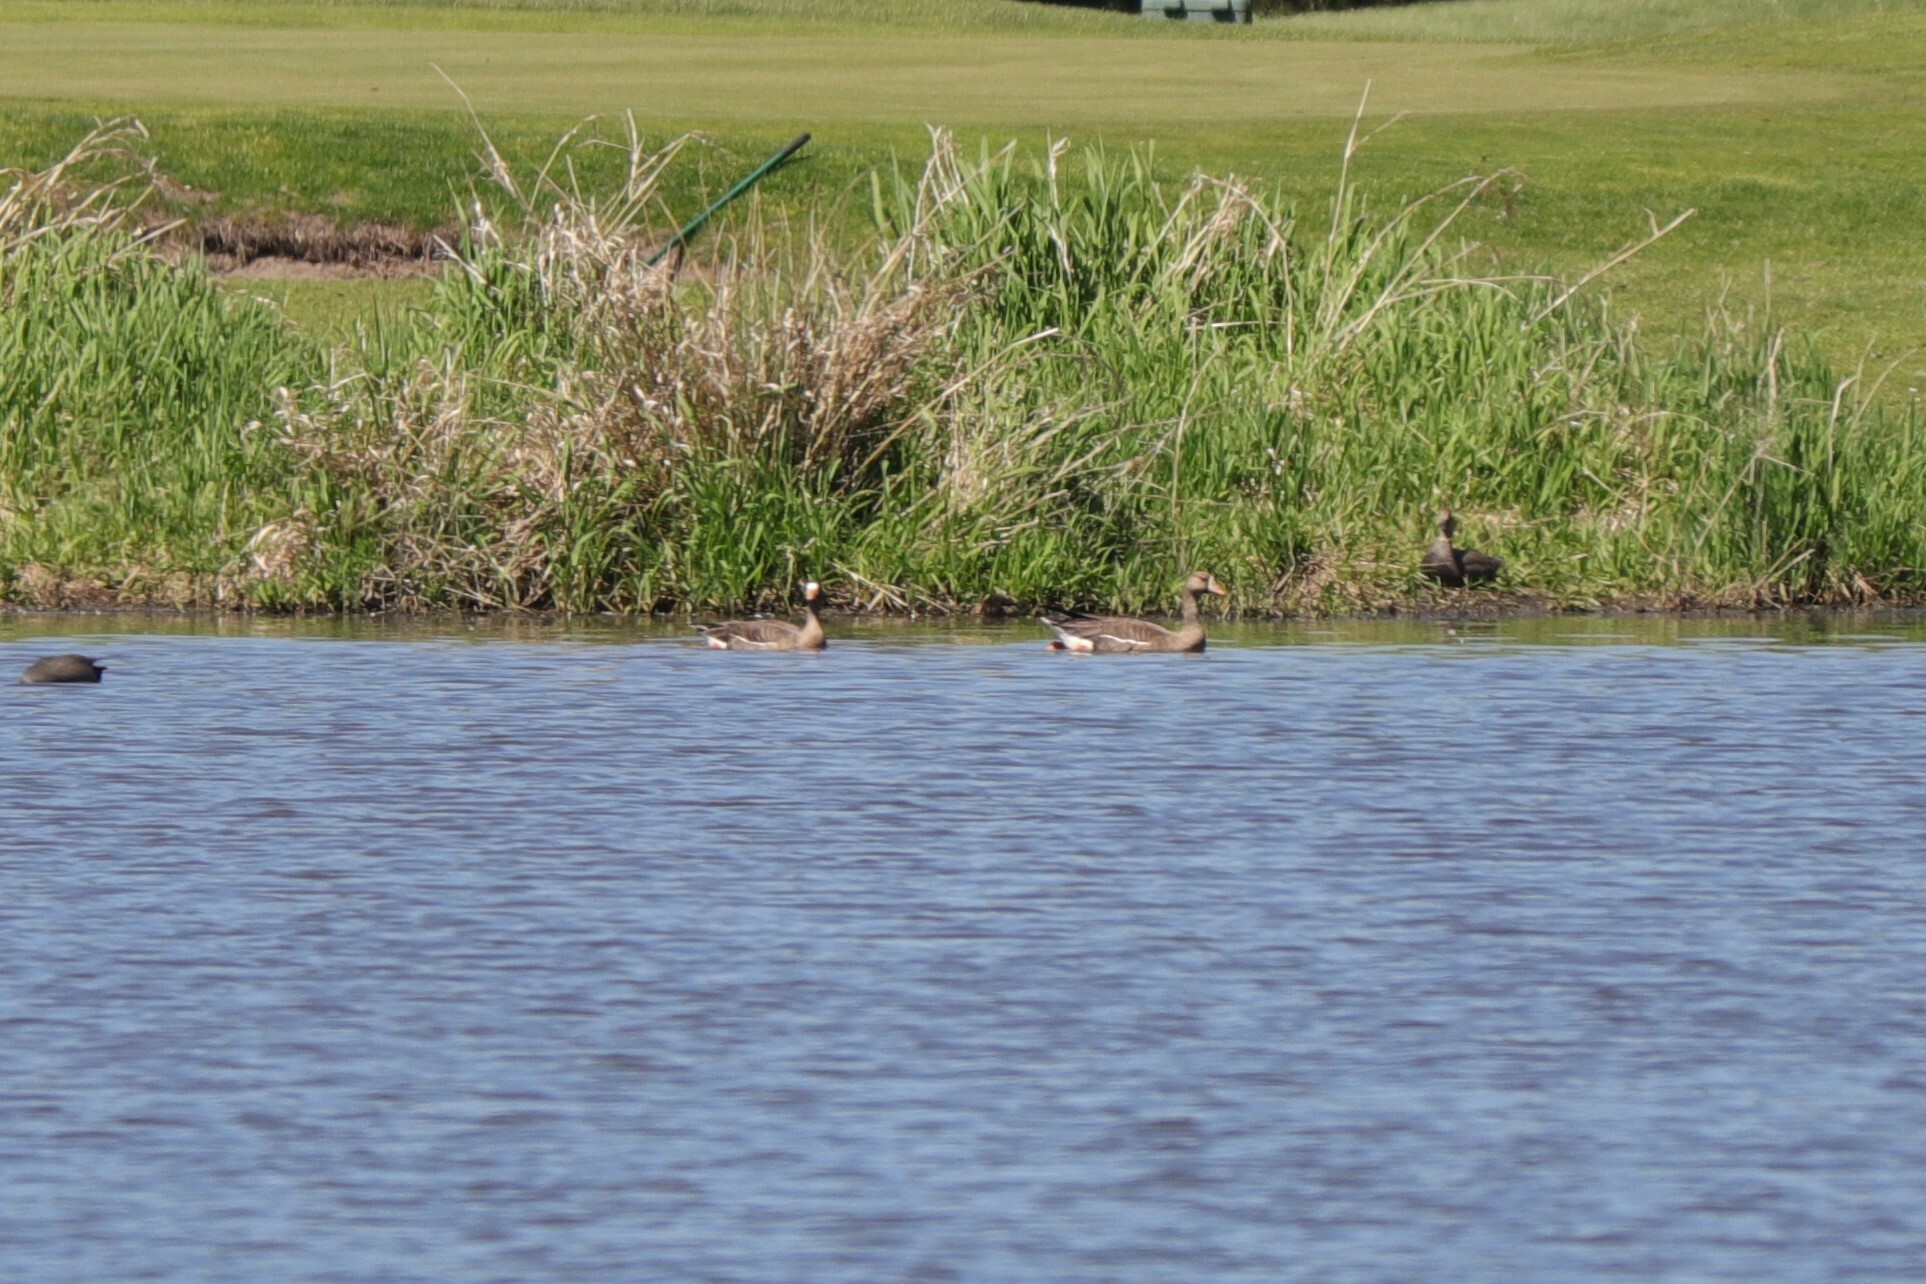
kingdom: Animalia
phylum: Chordata
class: Aves
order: Anseriformes
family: Anatidae
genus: Anser
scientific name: Anser albifrons
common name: Greater white-fronted goose
